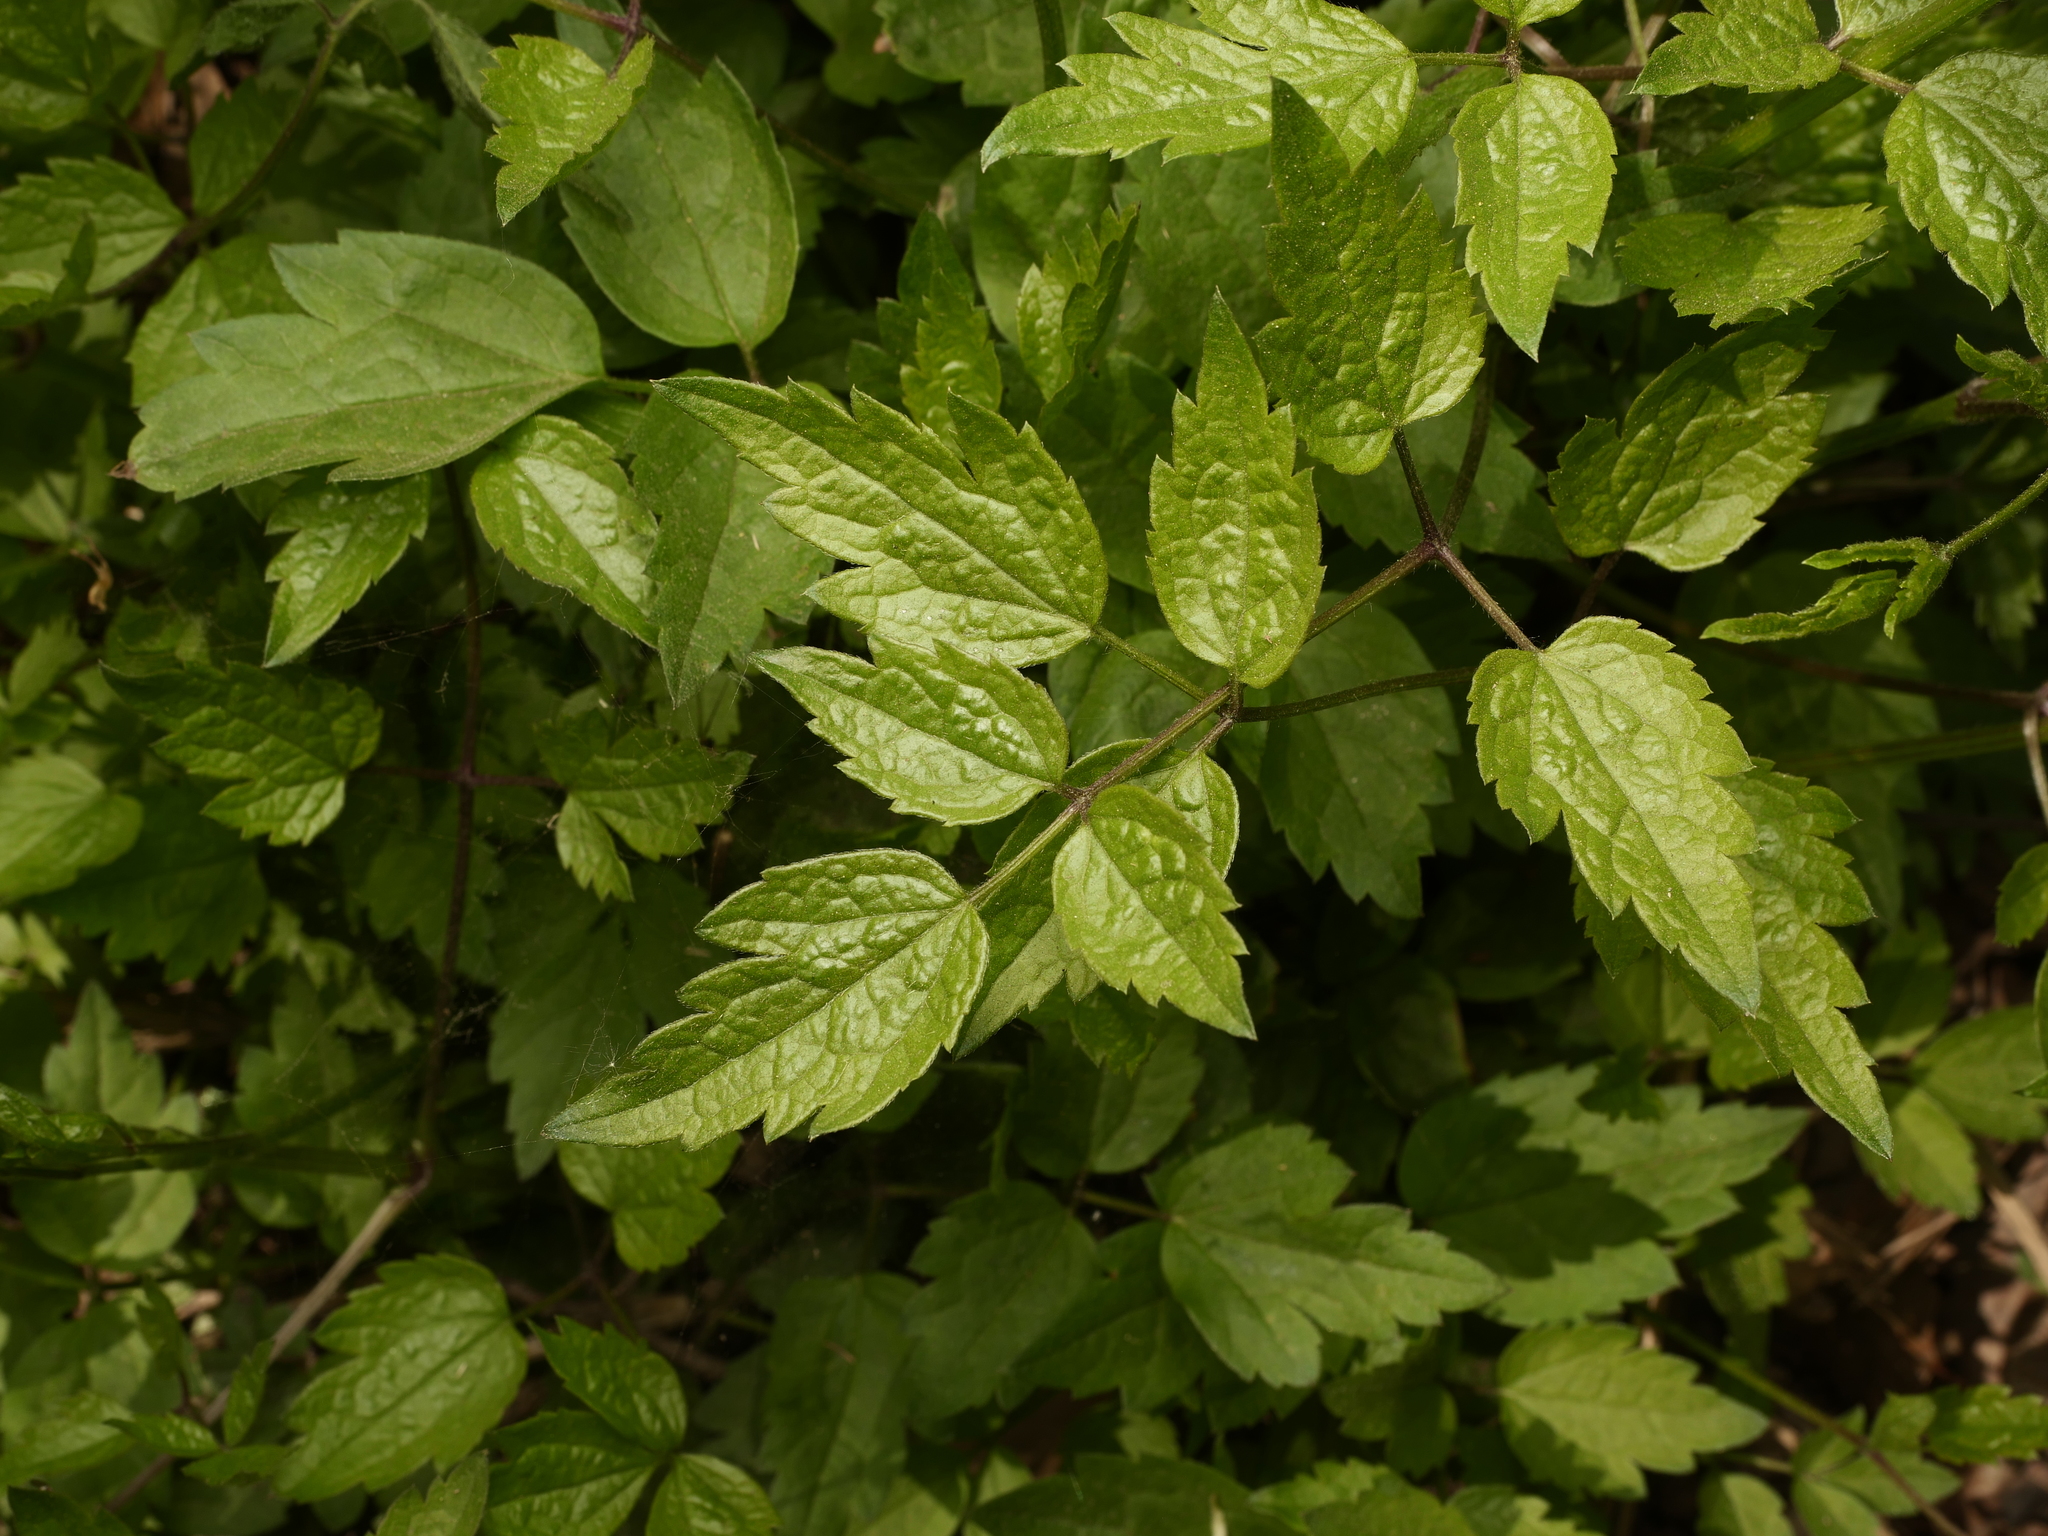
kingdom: Plantae
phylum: Tracheophyta
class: Magnoliopsida
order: Ranunculales
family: Ranunculaceae
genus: Clematis
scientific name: Clematis vitalba
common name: Evergreen clematis
